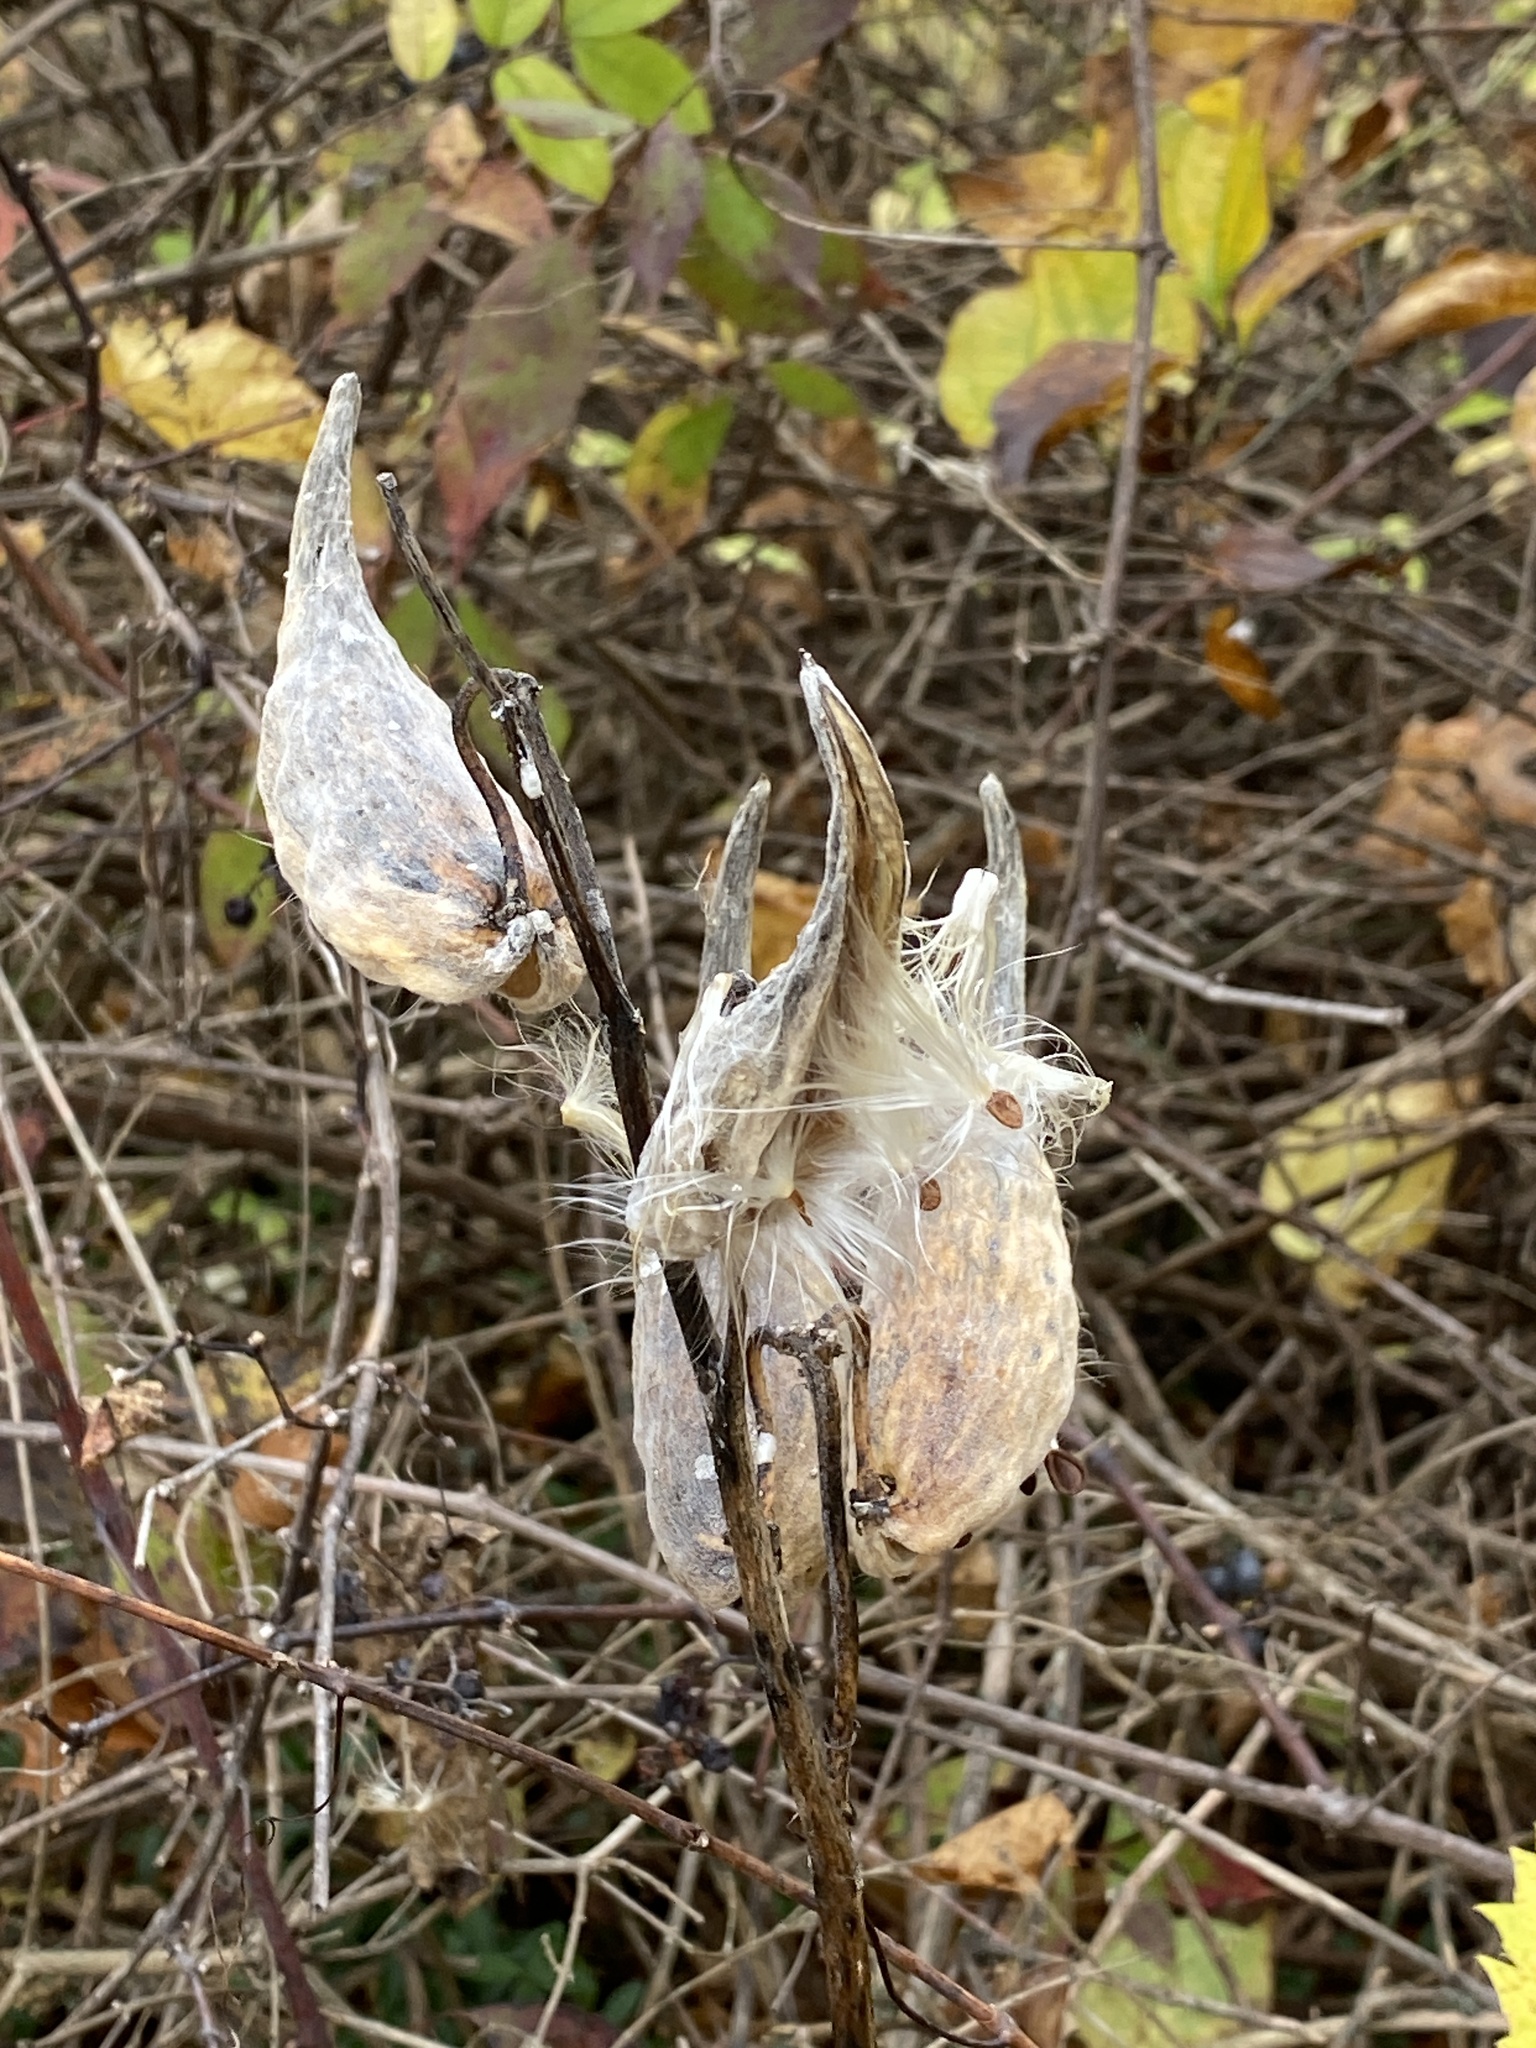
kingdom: Plantae
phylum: Tracheophyta
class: Magnoliopsida
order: Gentianales
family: Apocynaceae
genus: Asclepias
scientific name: Asclepias syriaca
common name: Common milkweed
